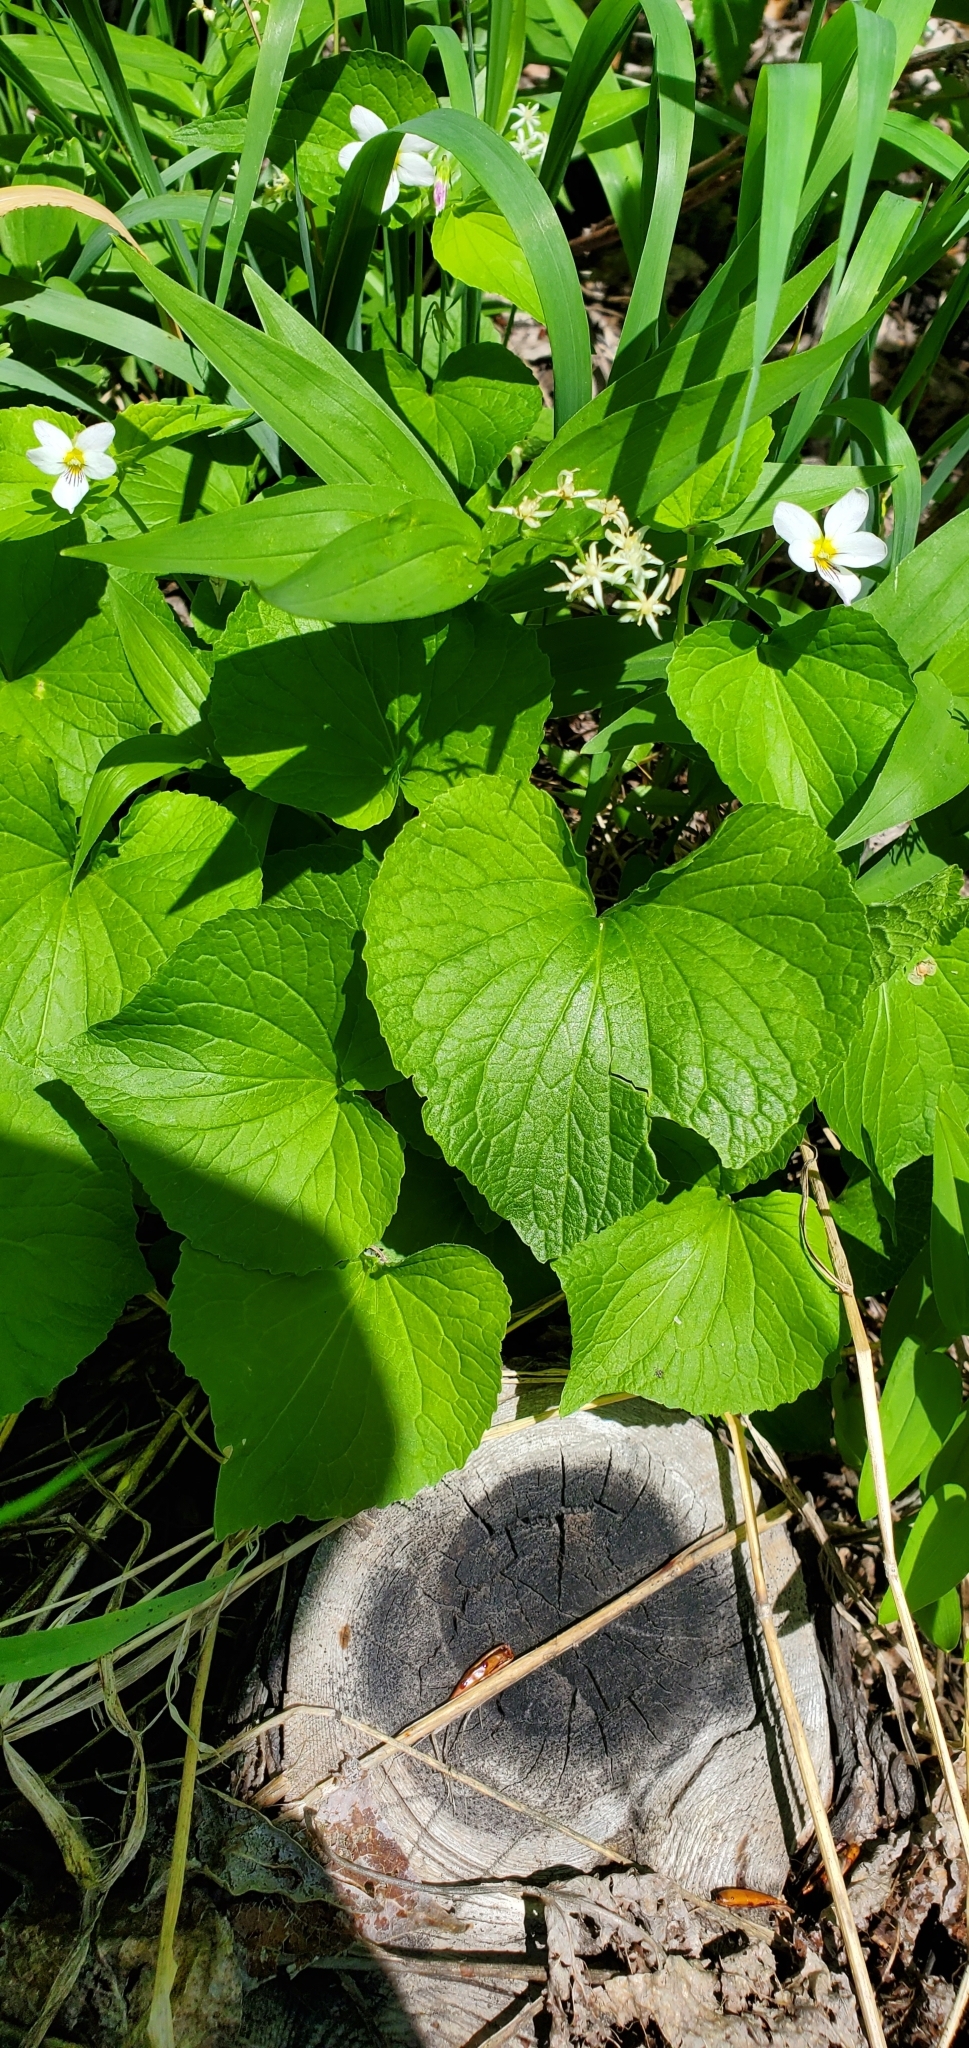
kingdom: Plantae
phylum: Tracheophyta
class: Magnoliopsida
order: Malpighiales
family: Violaceae
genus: Viola
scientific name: Viola canadensis
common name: Canada violet
